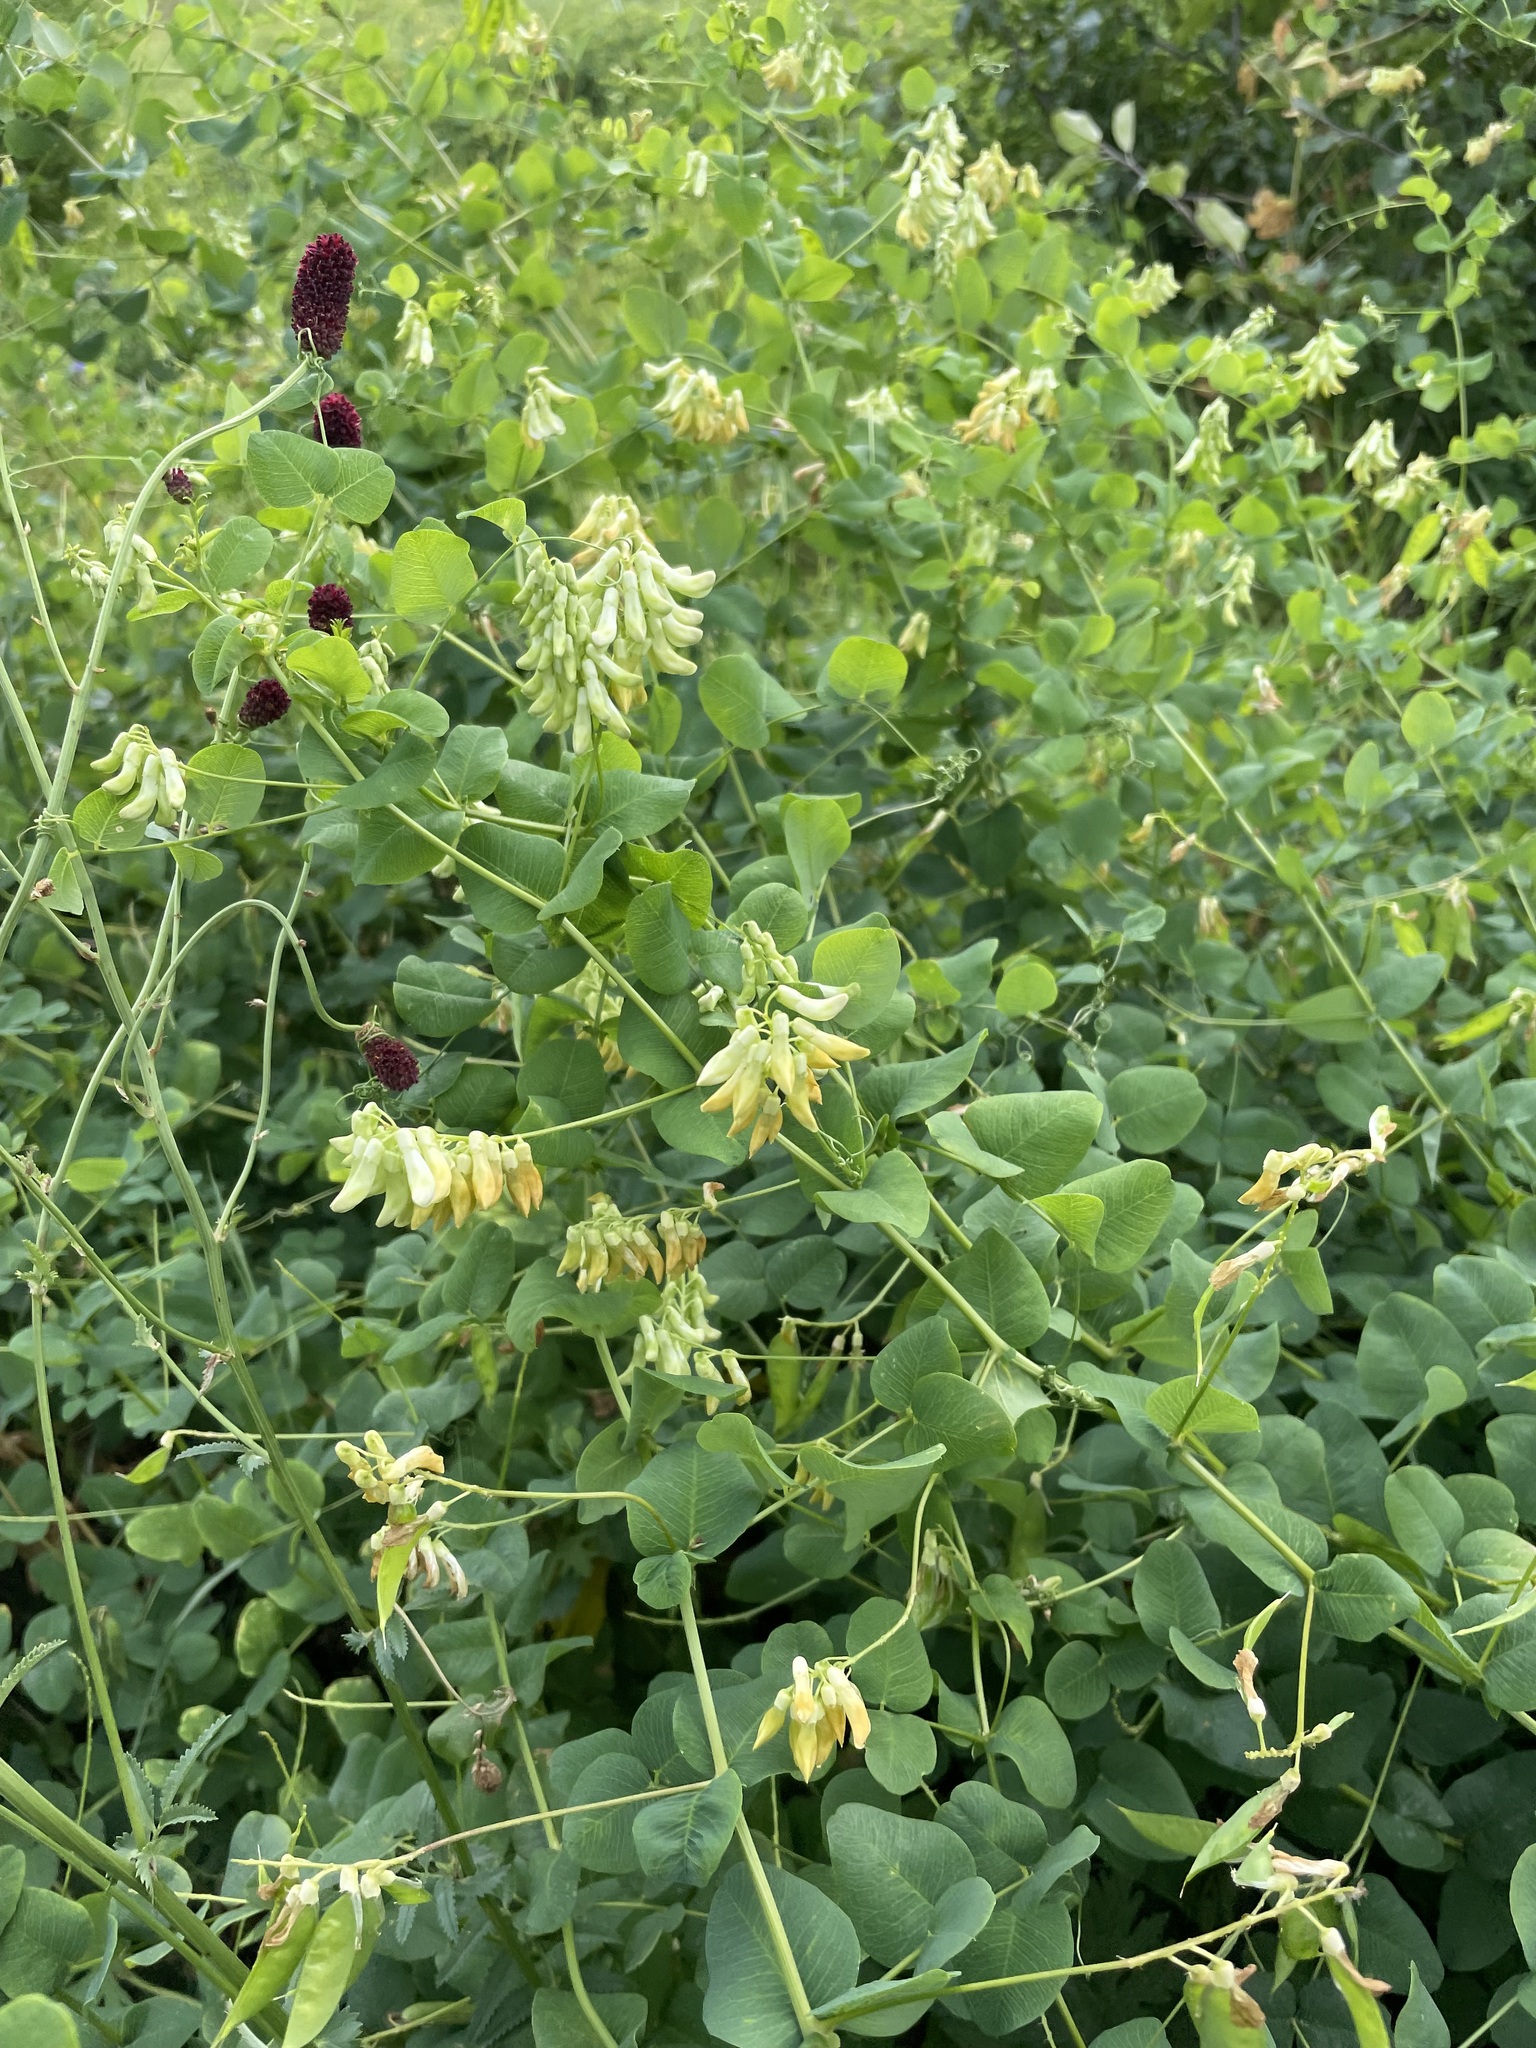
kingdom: Plantae
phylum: Tracheophyta
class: Magnoliopsida
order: Fabales
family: Fabaceae
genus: Vicia
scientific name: Vicia pisiformis
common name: Pale-flower vetch
